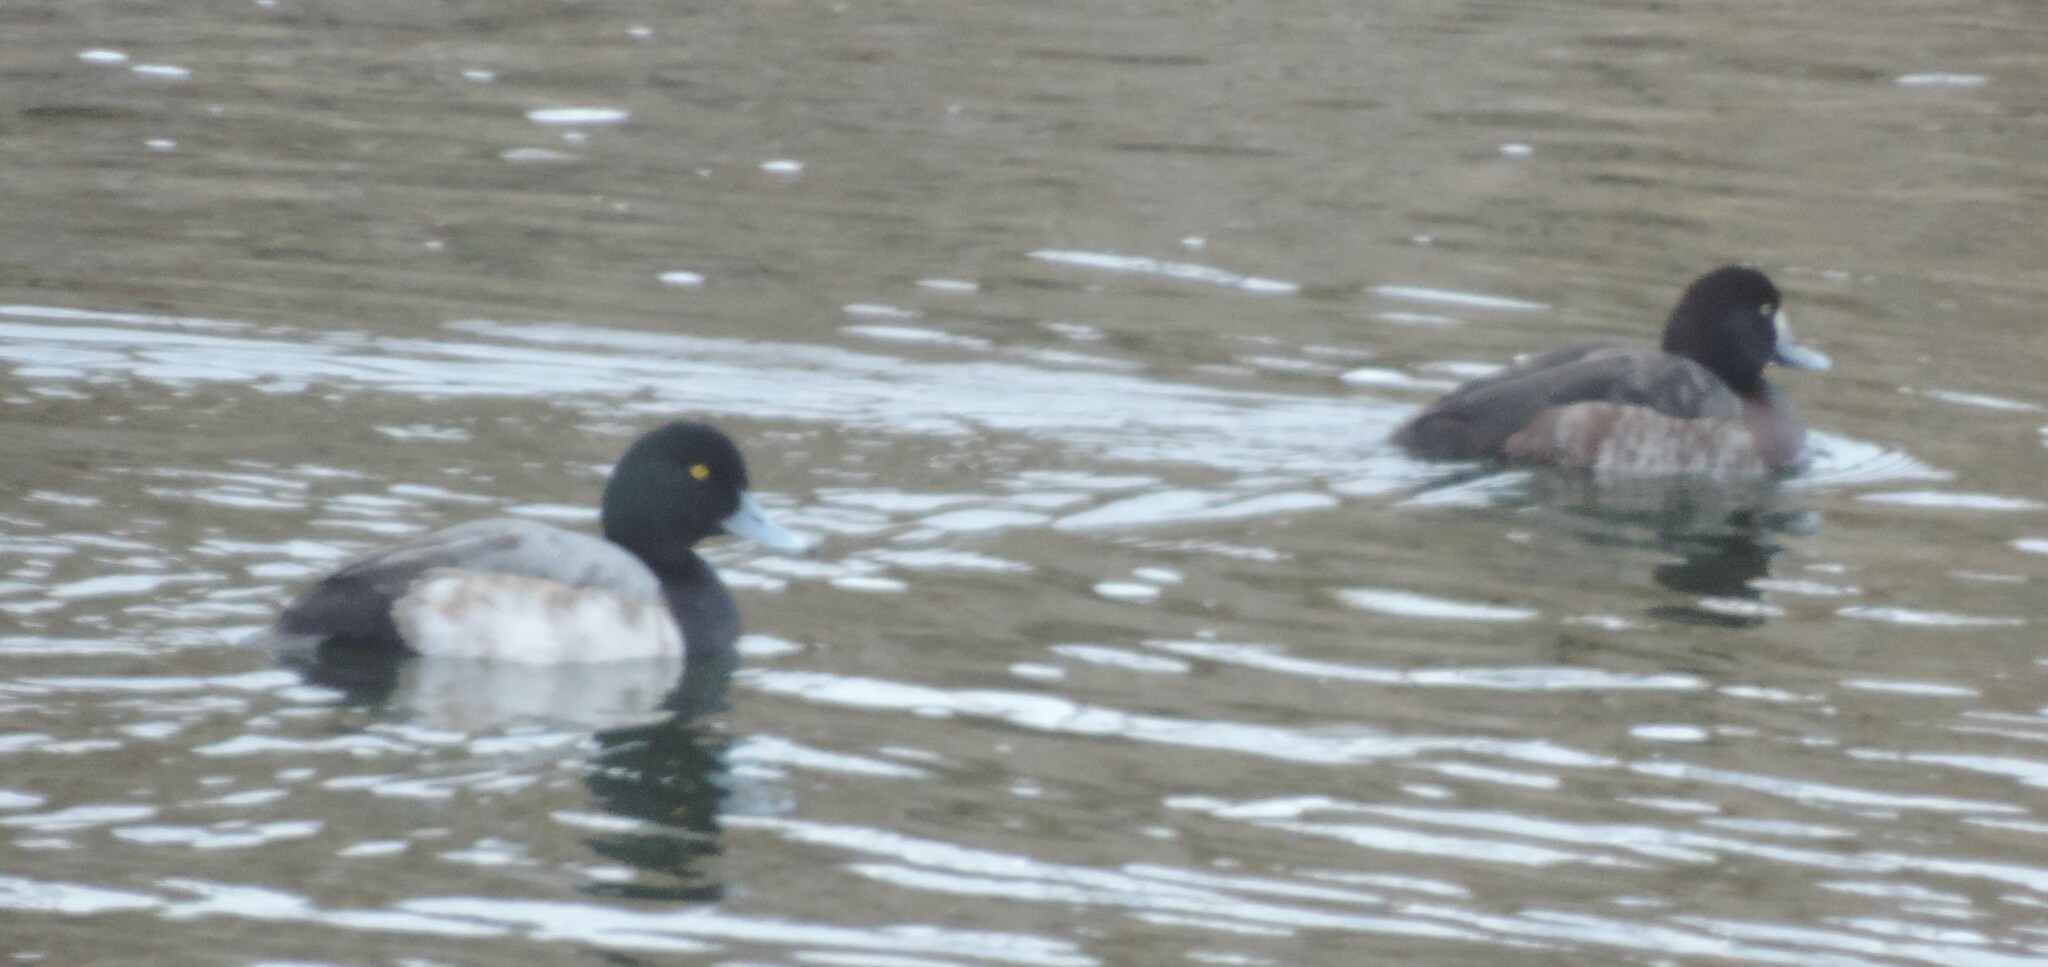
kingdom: Animalia
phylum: Chordata
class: Aves
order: Anseriformes
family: Anatidae
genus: Aythya
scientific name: Aythya marila
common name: Greater scaup
